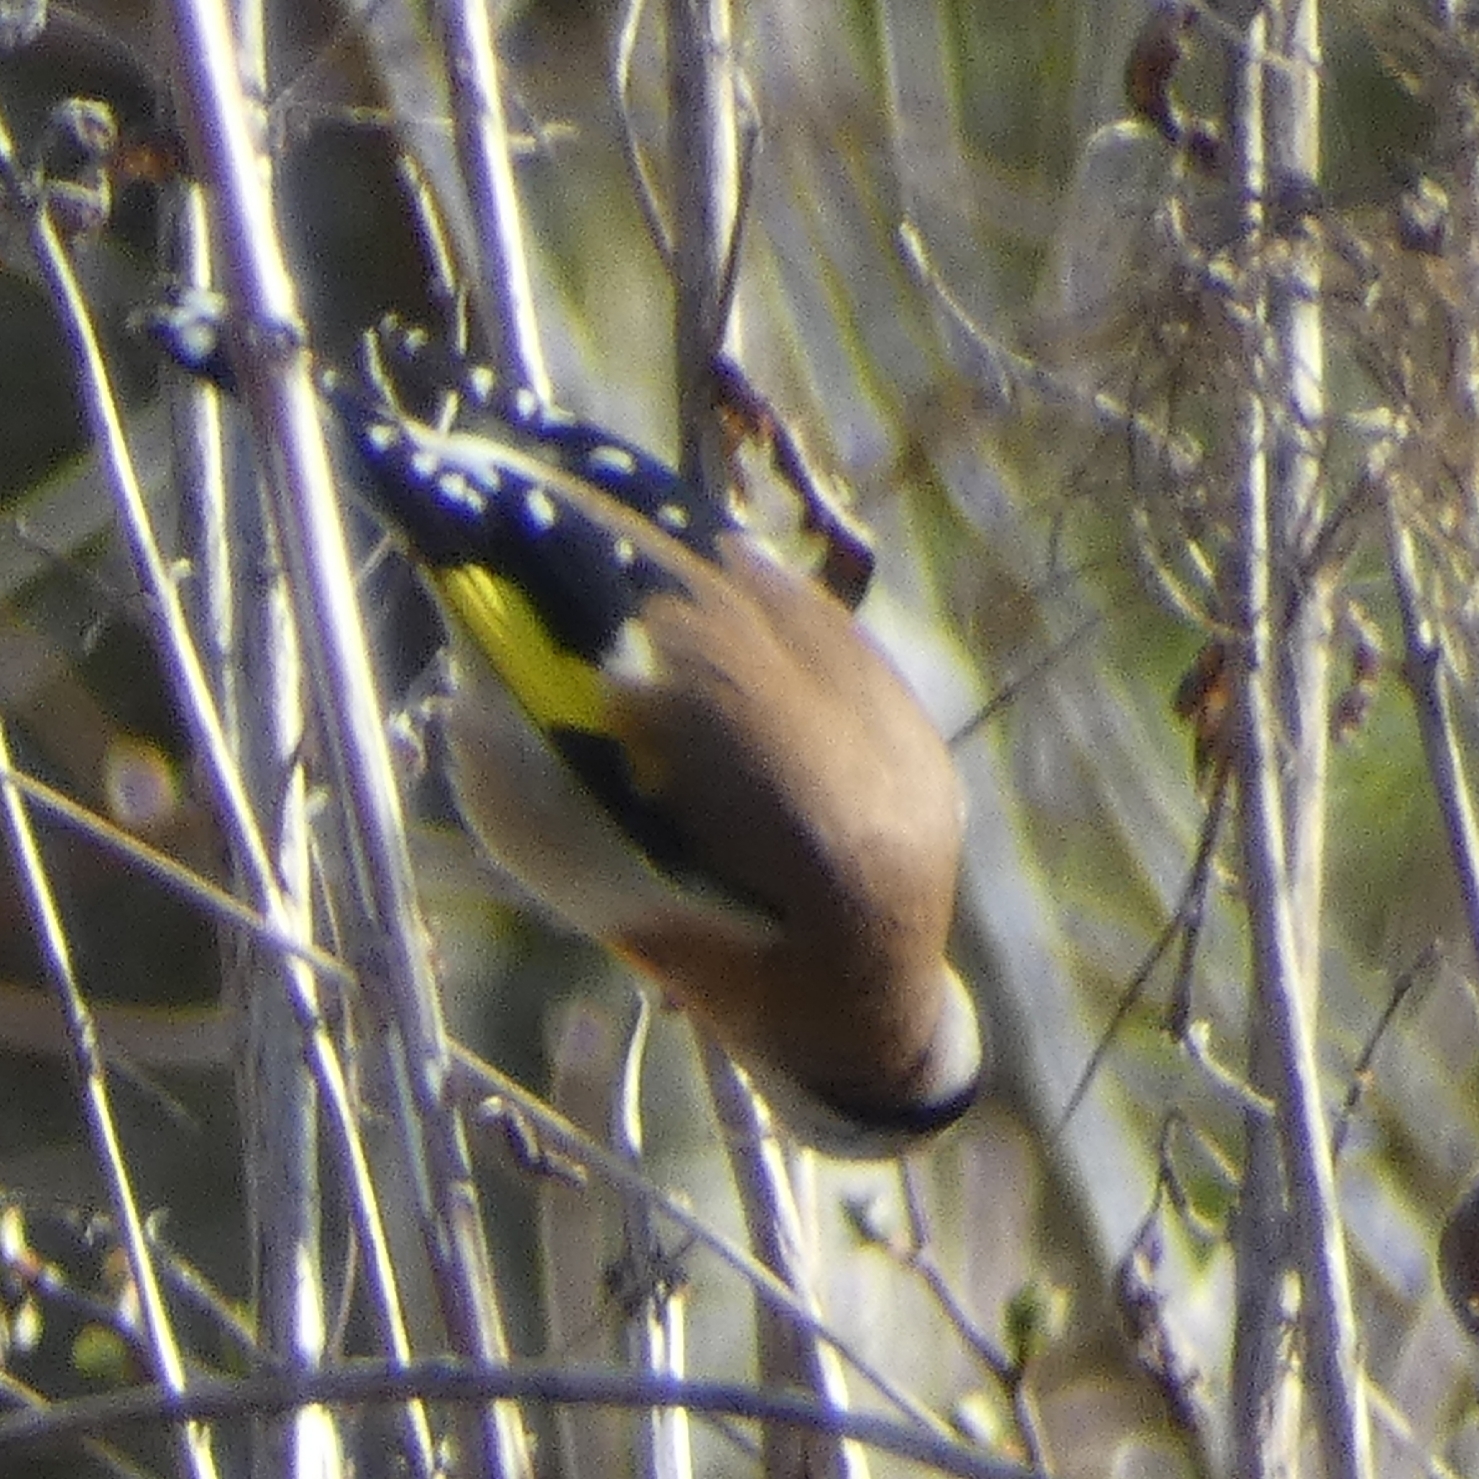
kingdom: Animalia
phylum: Chordata
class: Aves
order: Passeriformes
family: Fringillidae
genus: Carduelis
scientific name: Carduelis carduelis
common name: European goldfinch
